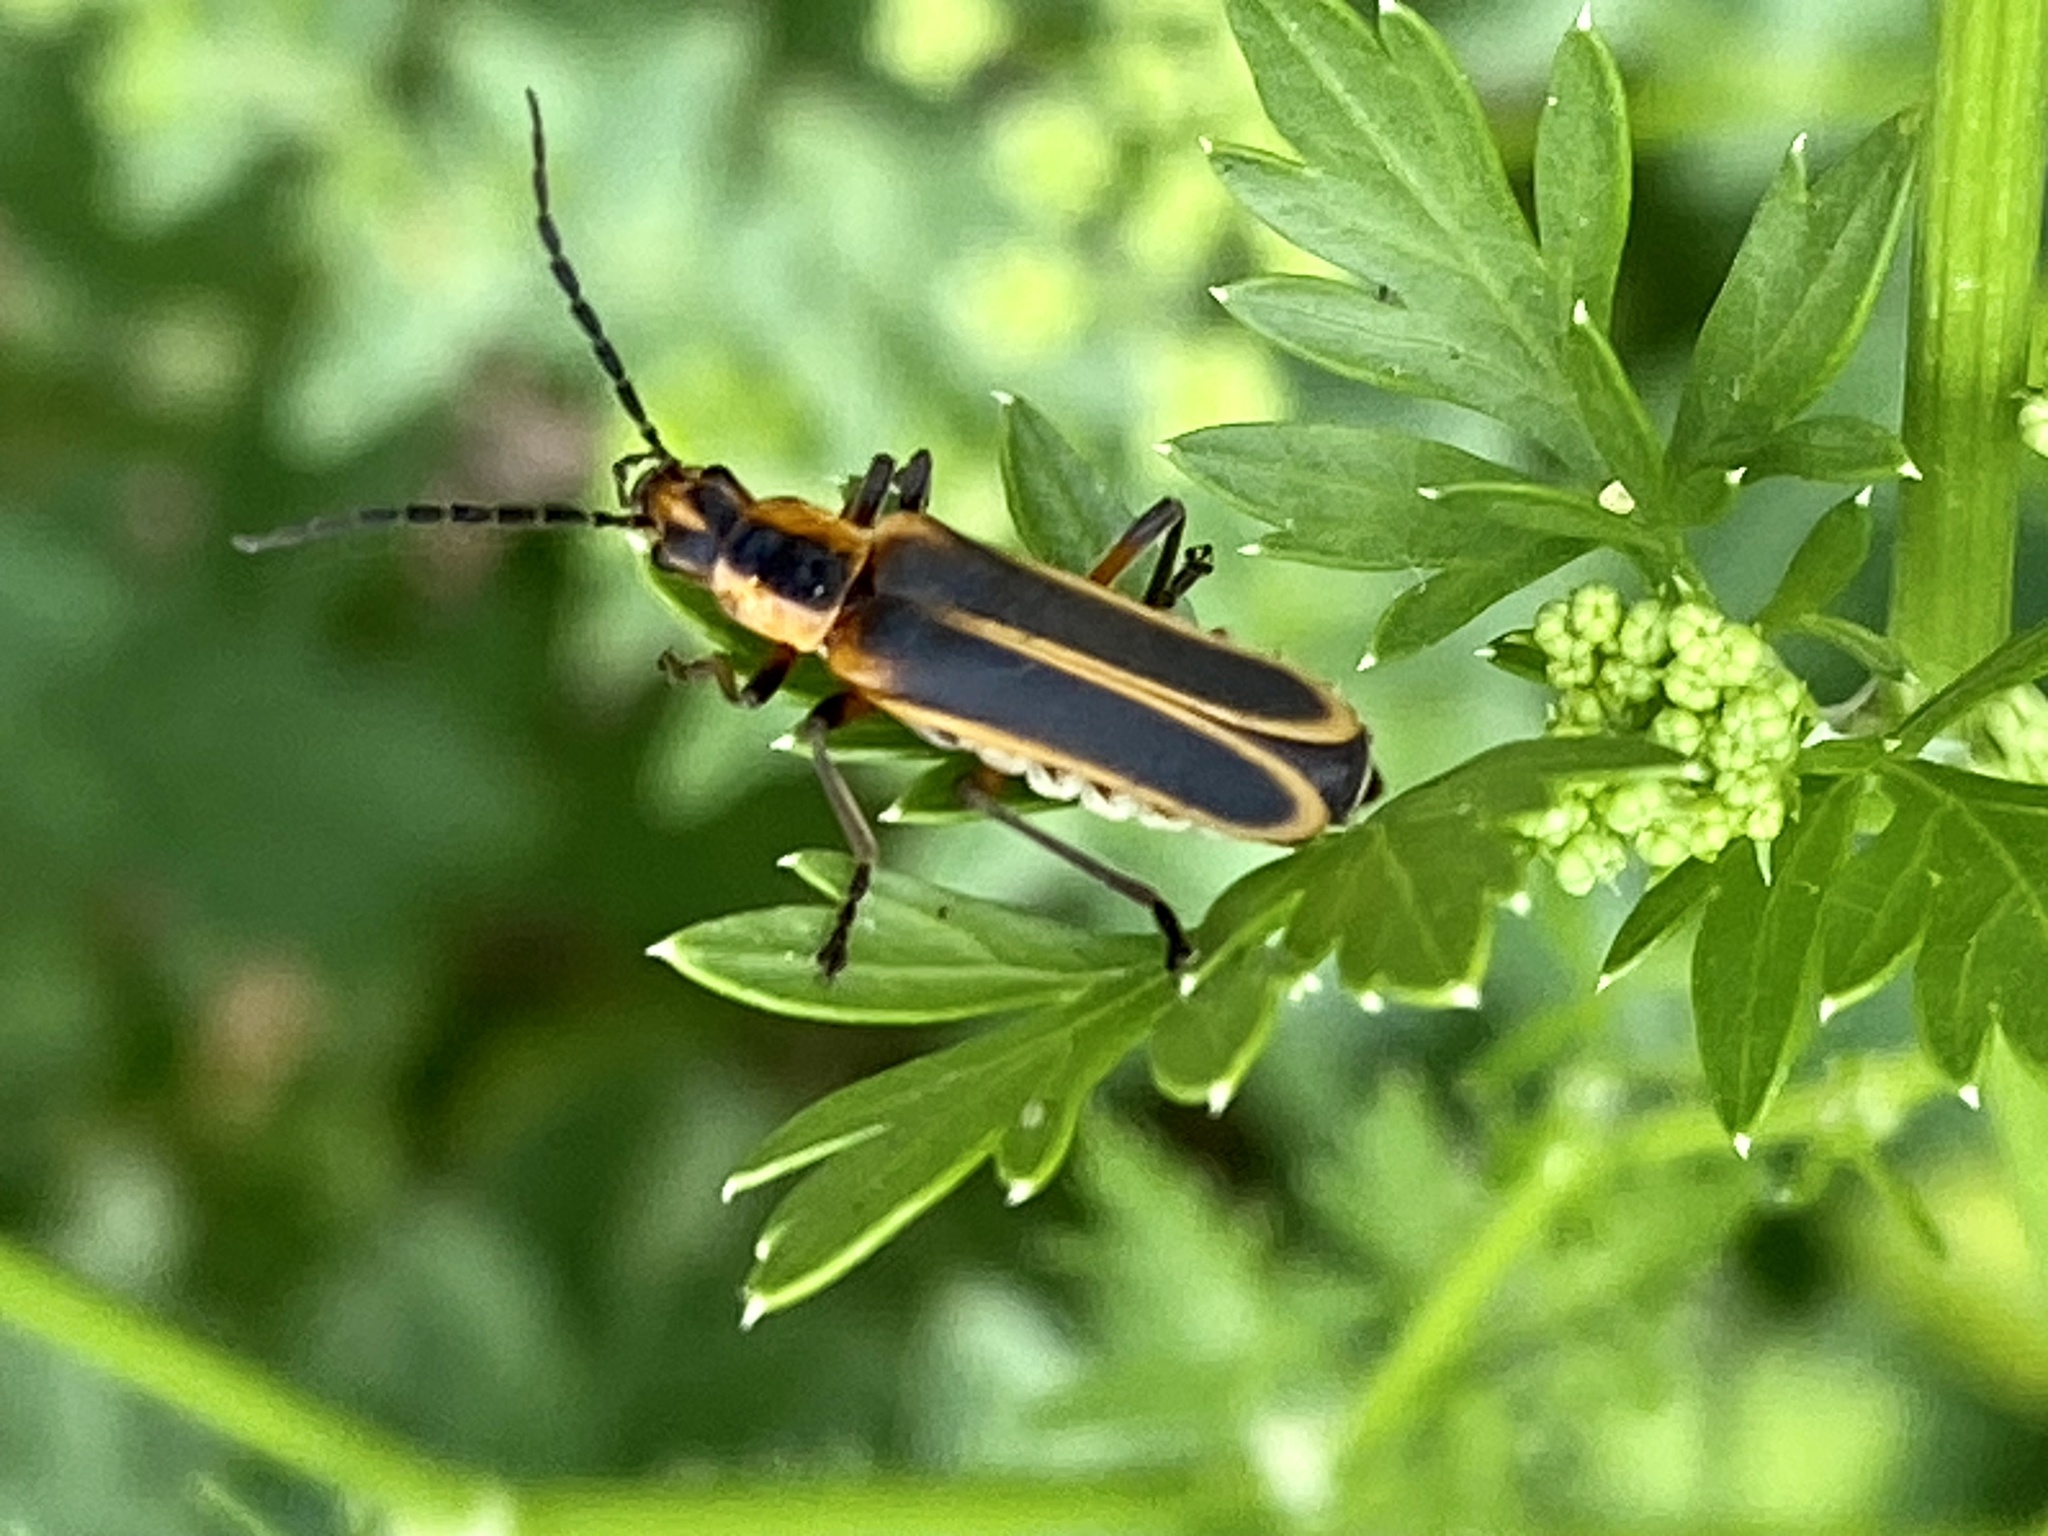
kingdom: Animalia
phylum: Arthropoda
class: Insecta
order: Coleoptera
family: Cantharidae
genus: Chauliognathus
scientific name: Chauliognathus marginatus
